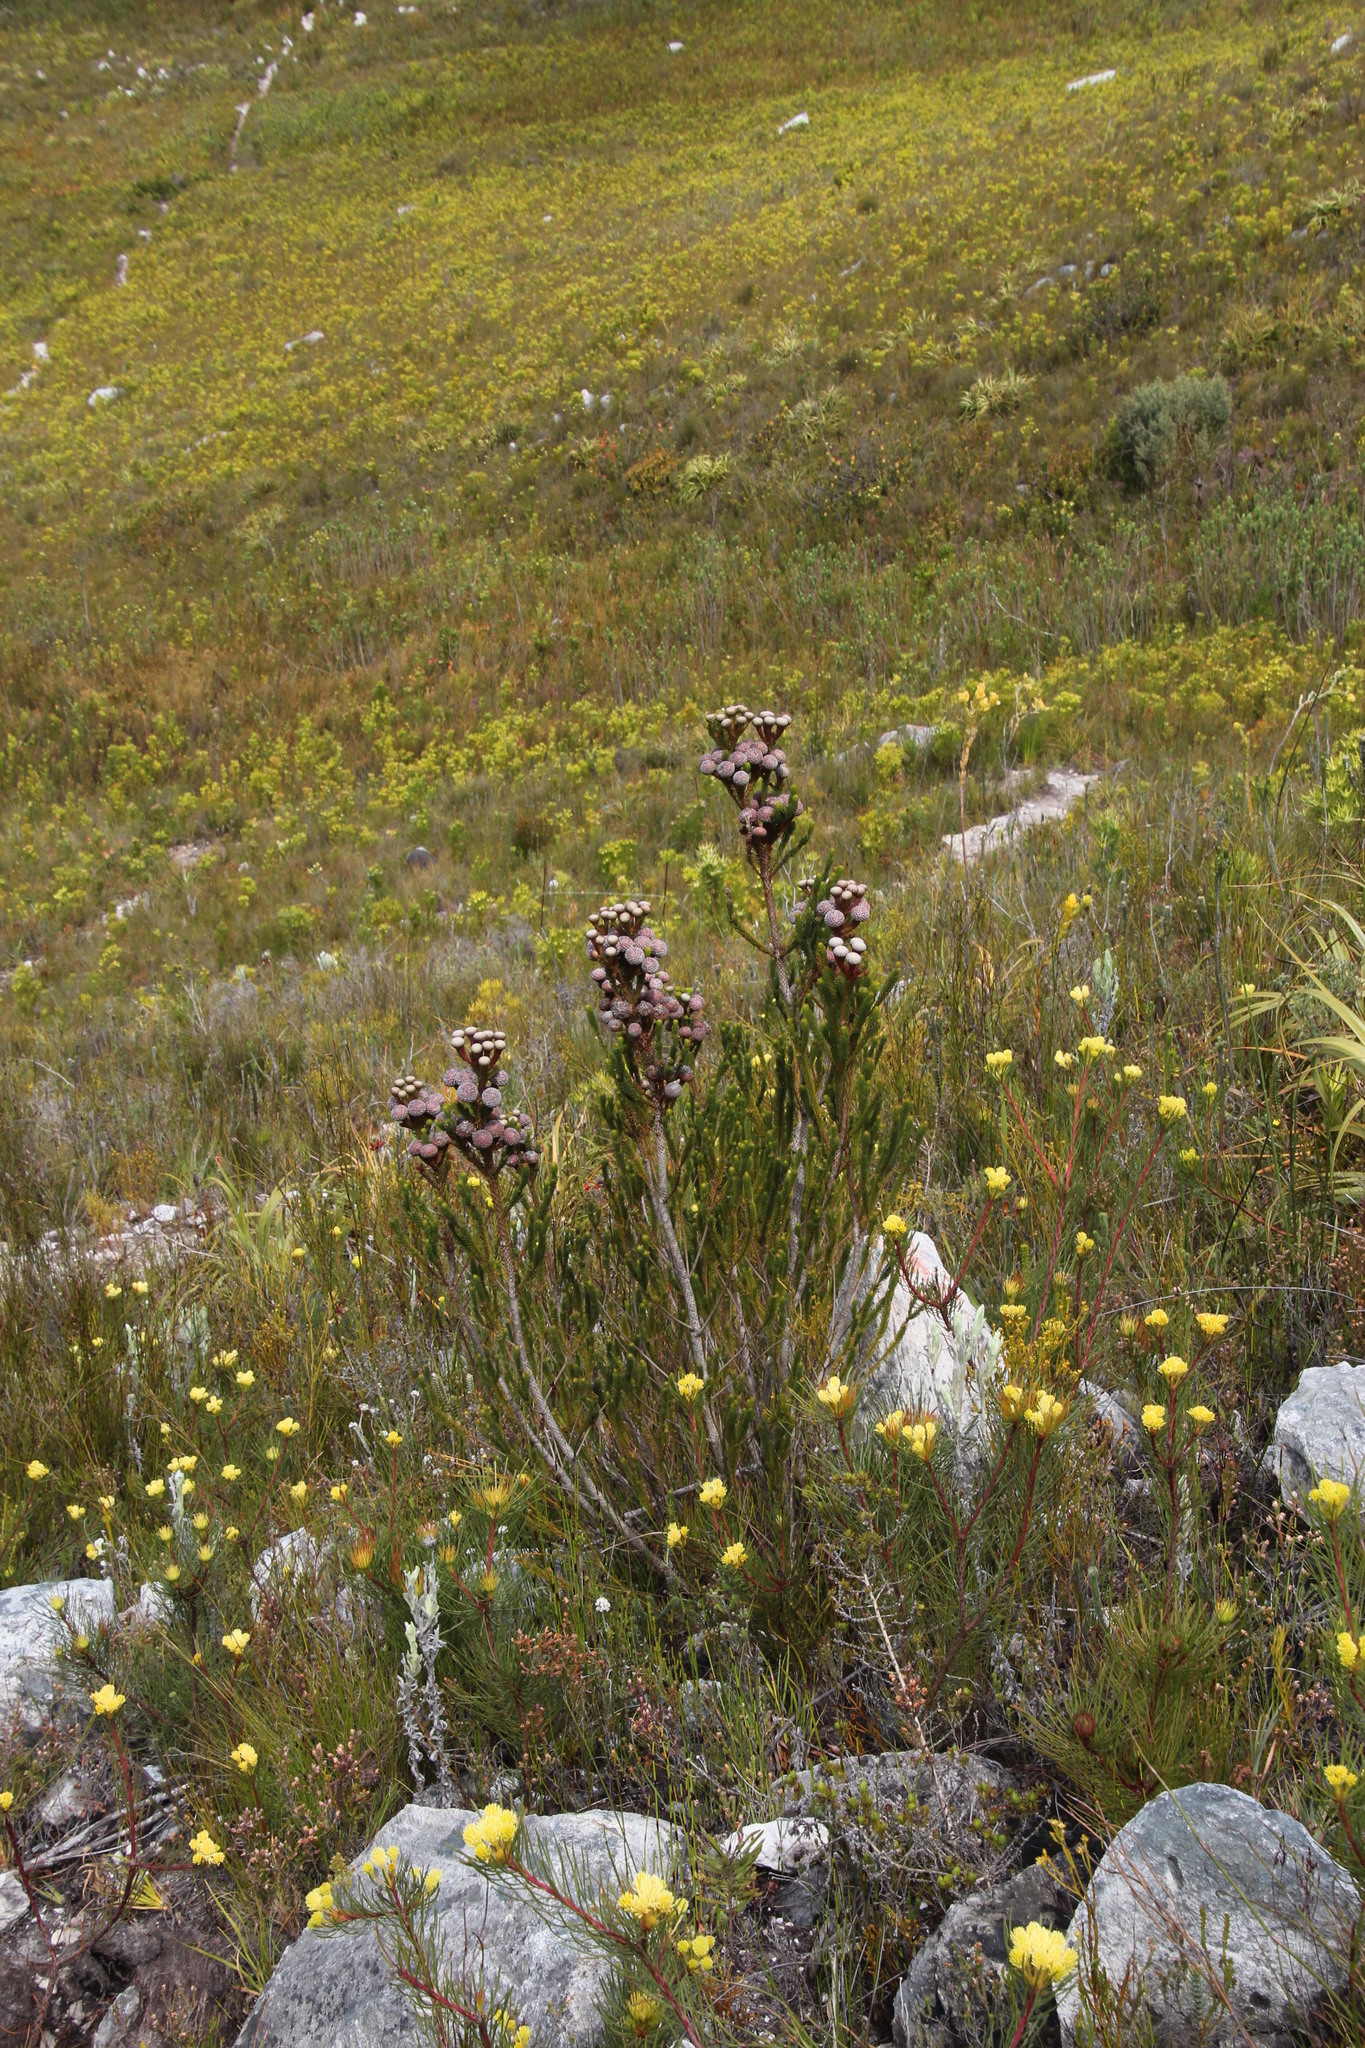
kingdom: Plantae
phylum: Tracheophyta
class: Magnoliopsida
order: Bruniales
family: Bruniaceae
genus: Berzelia
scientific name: Berzelia stokoei
